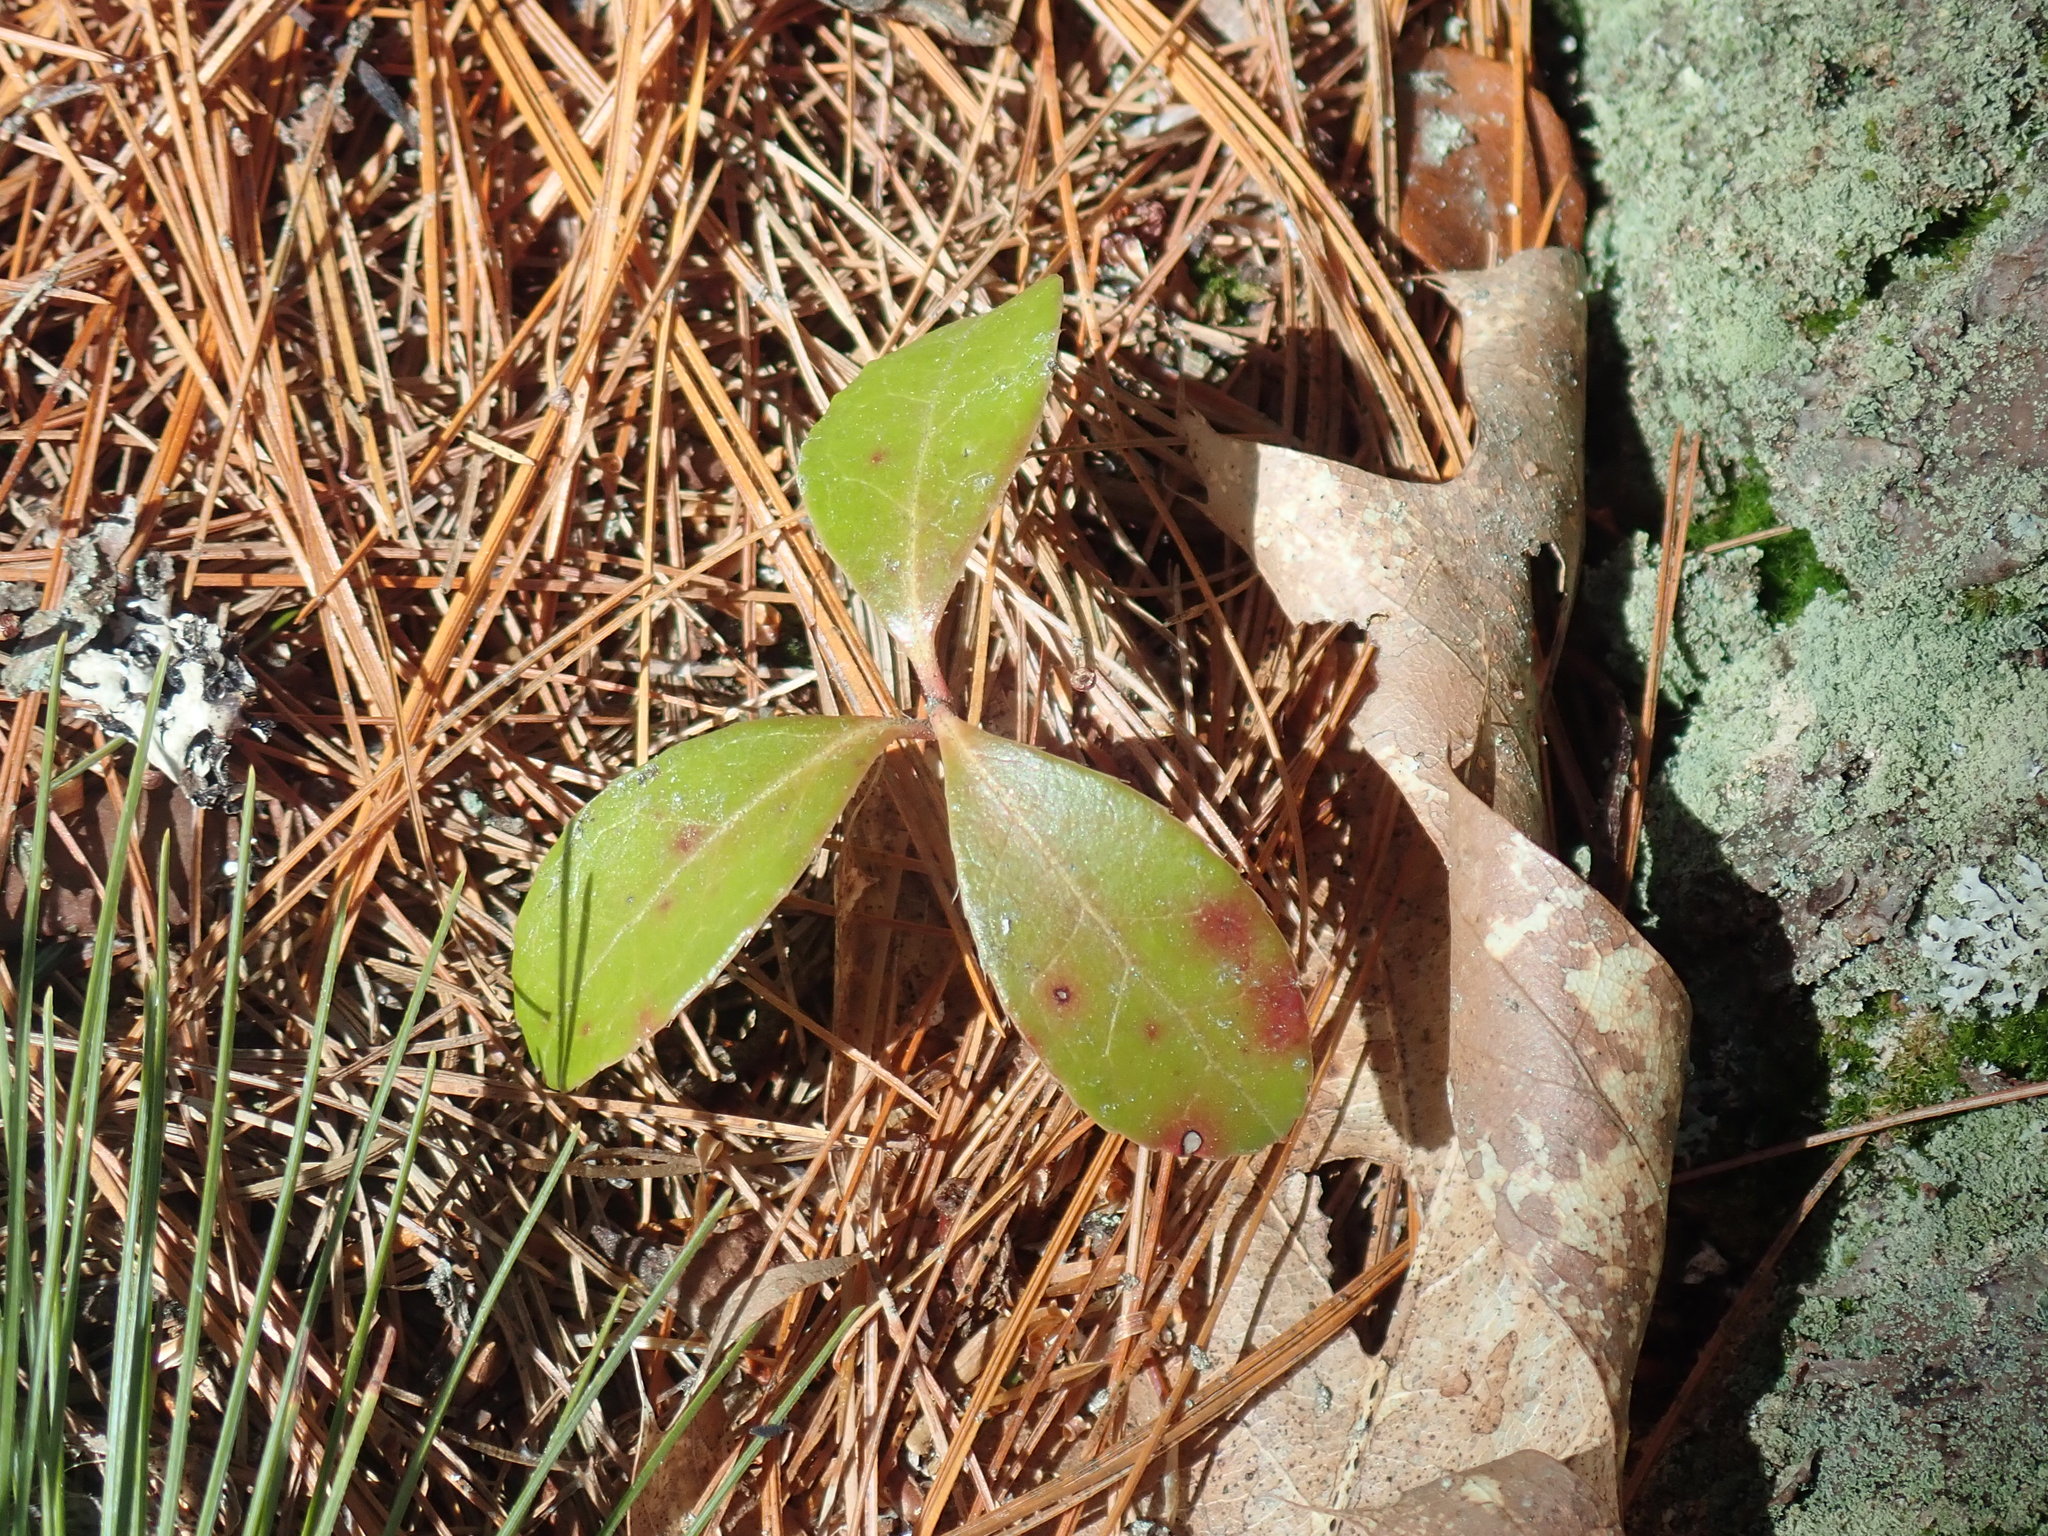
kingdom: Plantae
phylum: Tracheophyta
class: Magnoliopsida
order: Ericales
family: Ericaceae
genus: Gaultheria
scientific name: Gaultheria procumbens
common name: Checkerberry
